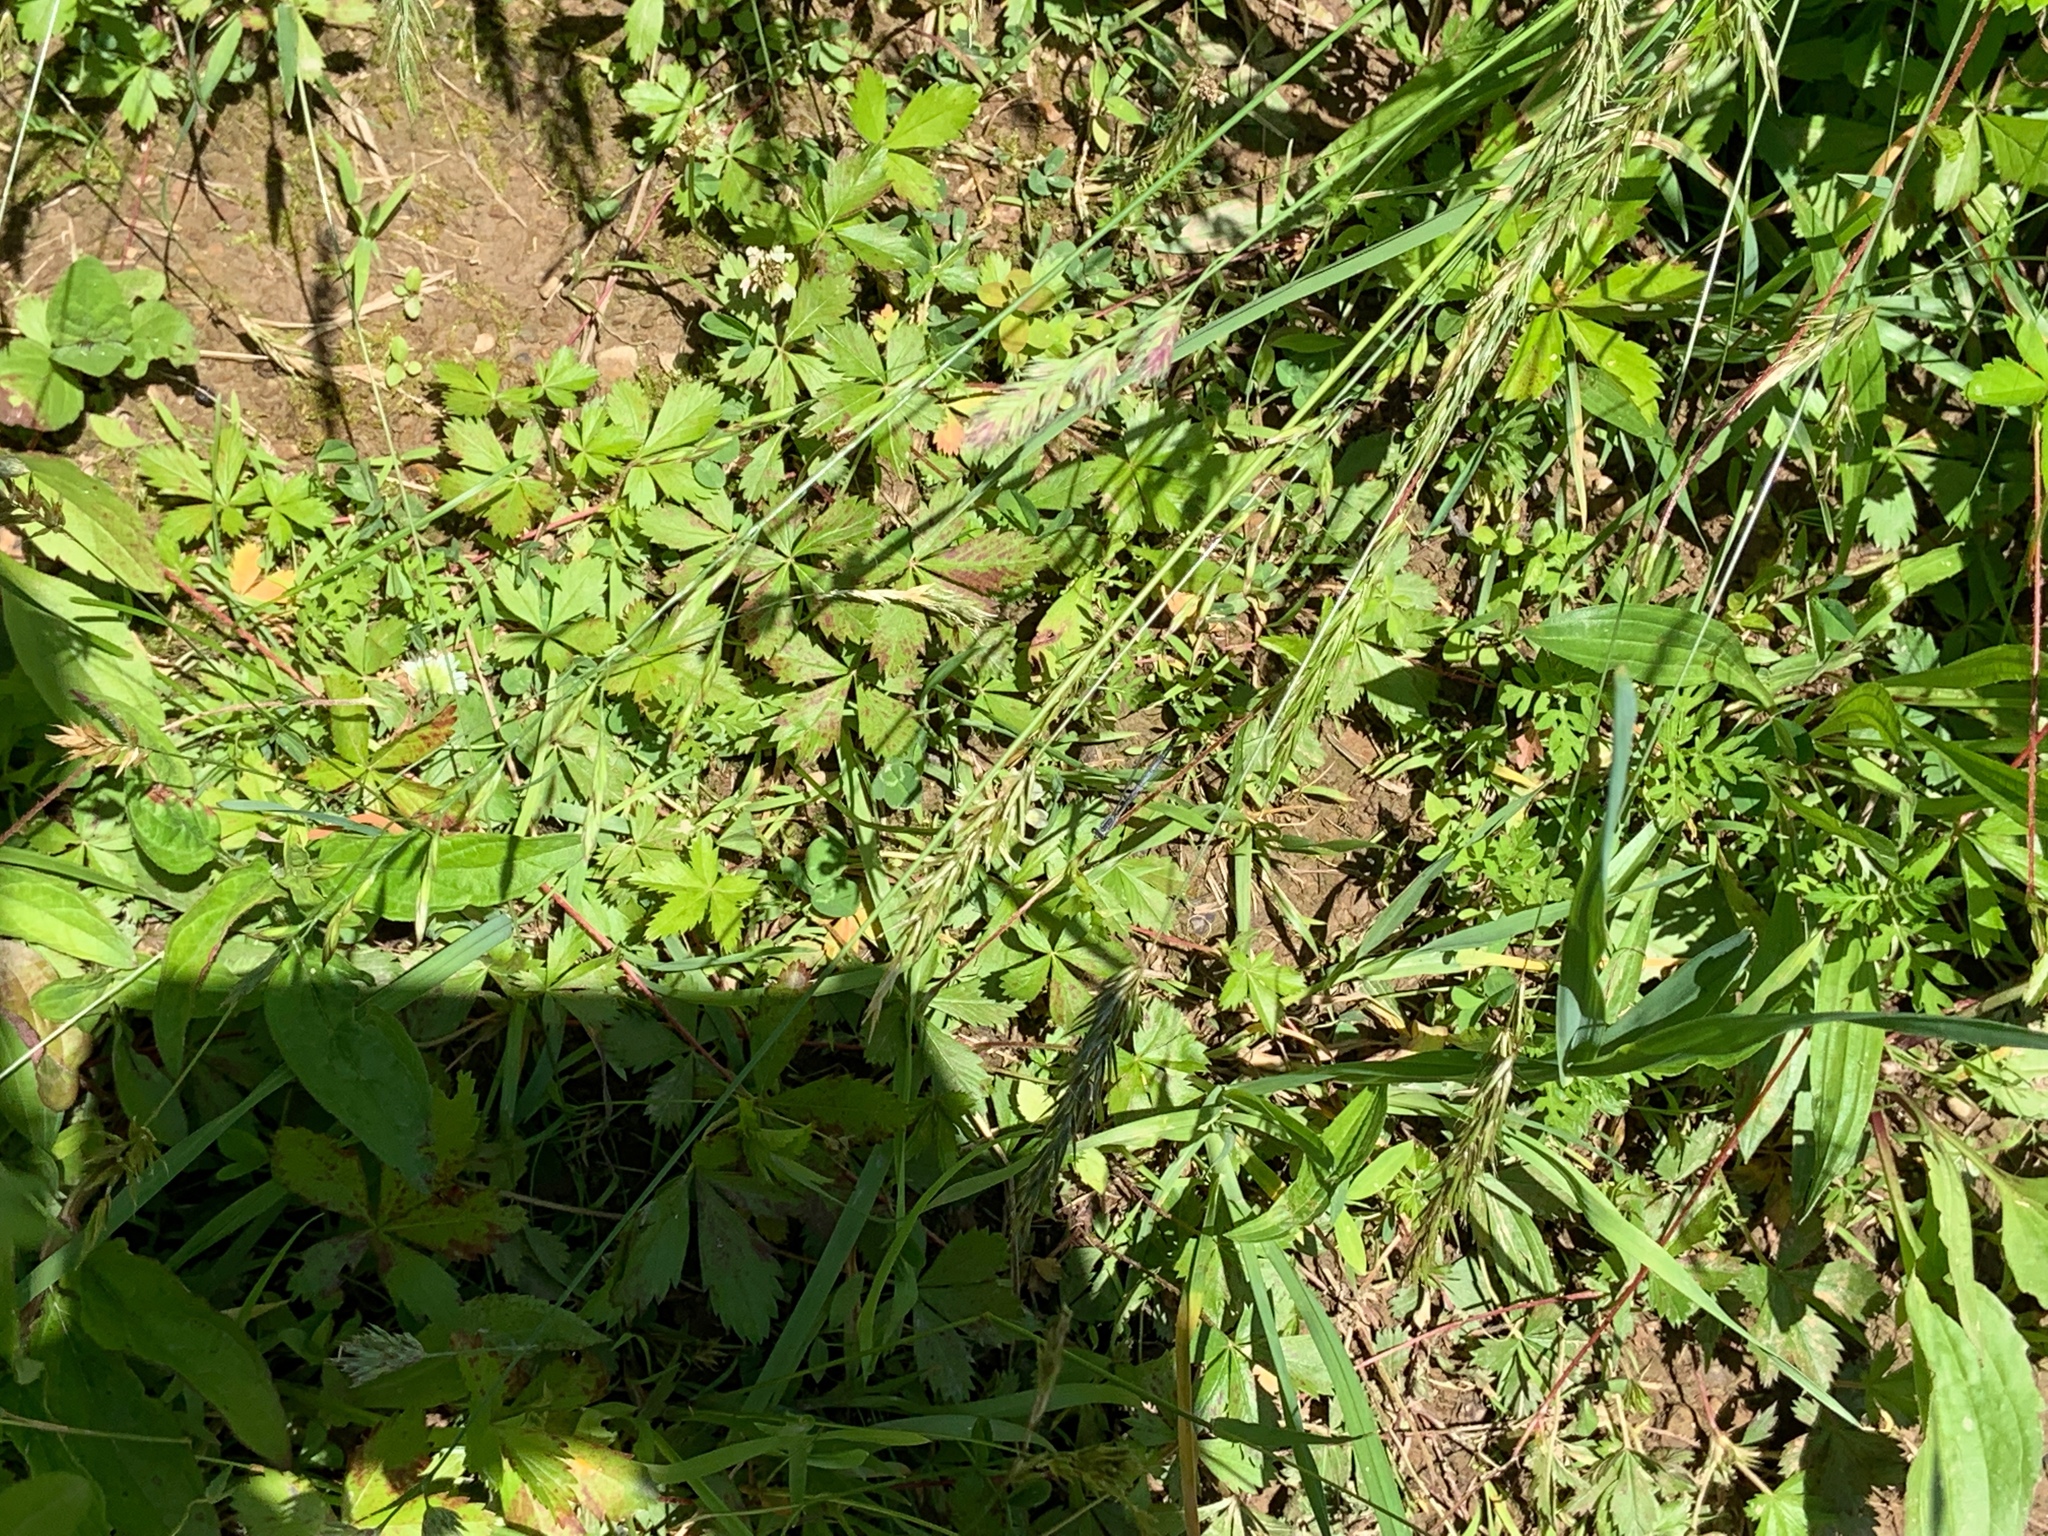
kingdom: Plantae
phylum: Tracheophyta
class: Liliopsida
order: Poales
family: Poaceae
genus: Anthoxanthum
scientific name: Anthoxanthum odoratum
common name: Sweet vernalgrass
